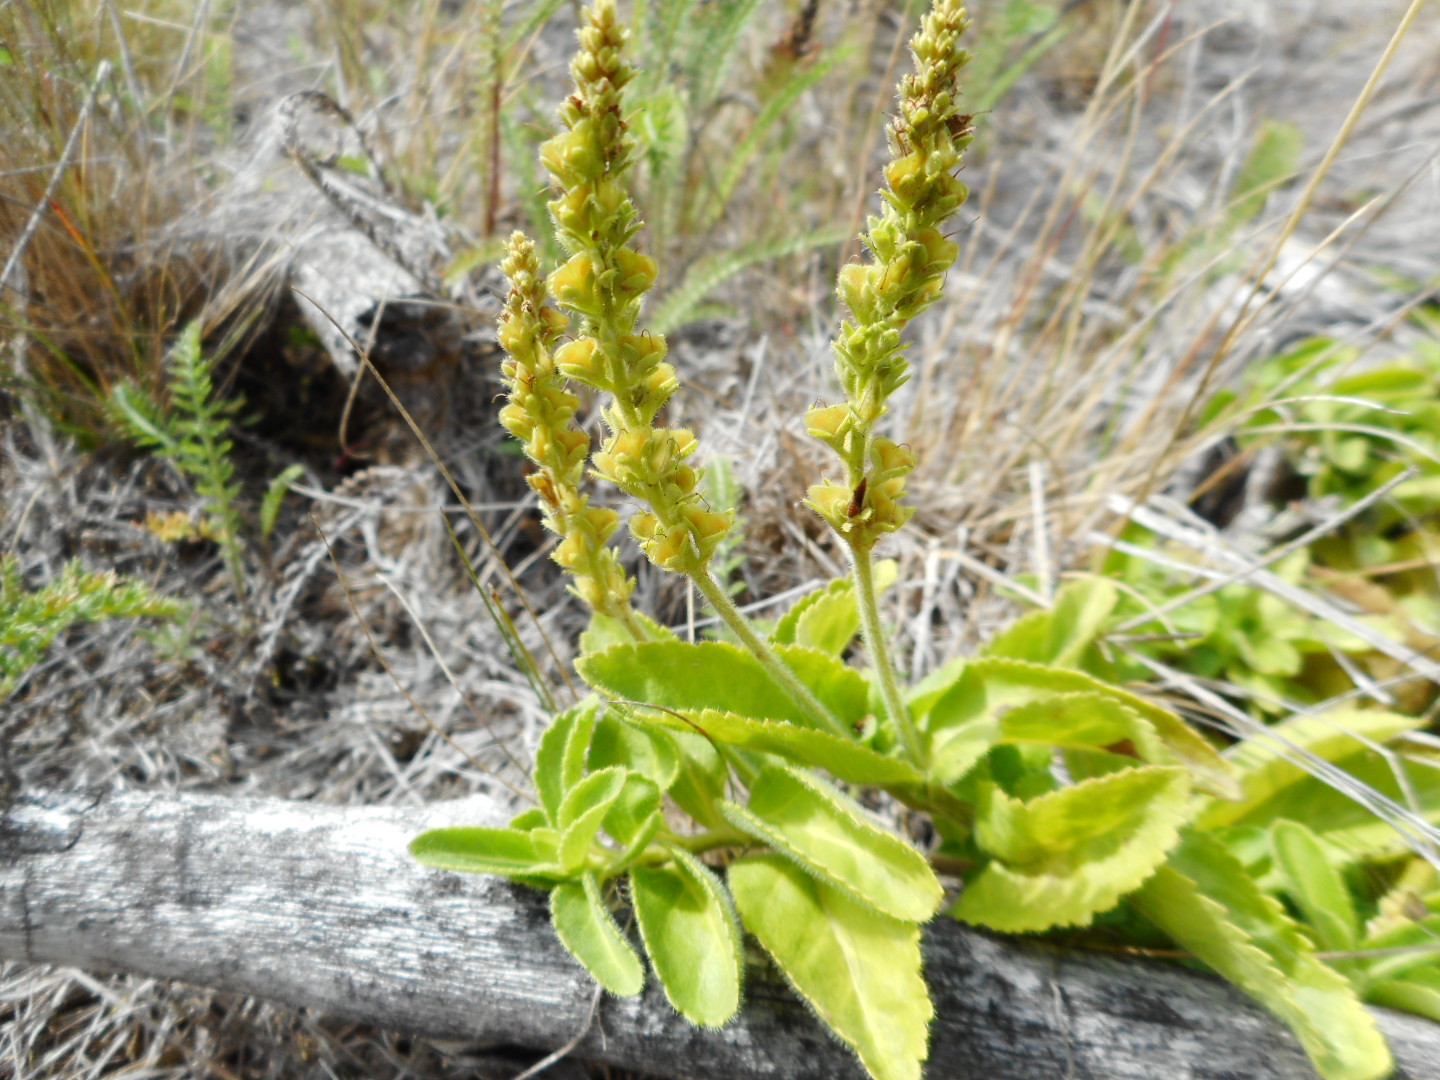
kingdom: Plantae
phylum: Tracheophyta
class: Magnoliopsida
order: Lamiales
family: Plantaginaceae
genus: Veronica
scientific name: Veronica officinalis
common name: Common speedwell
